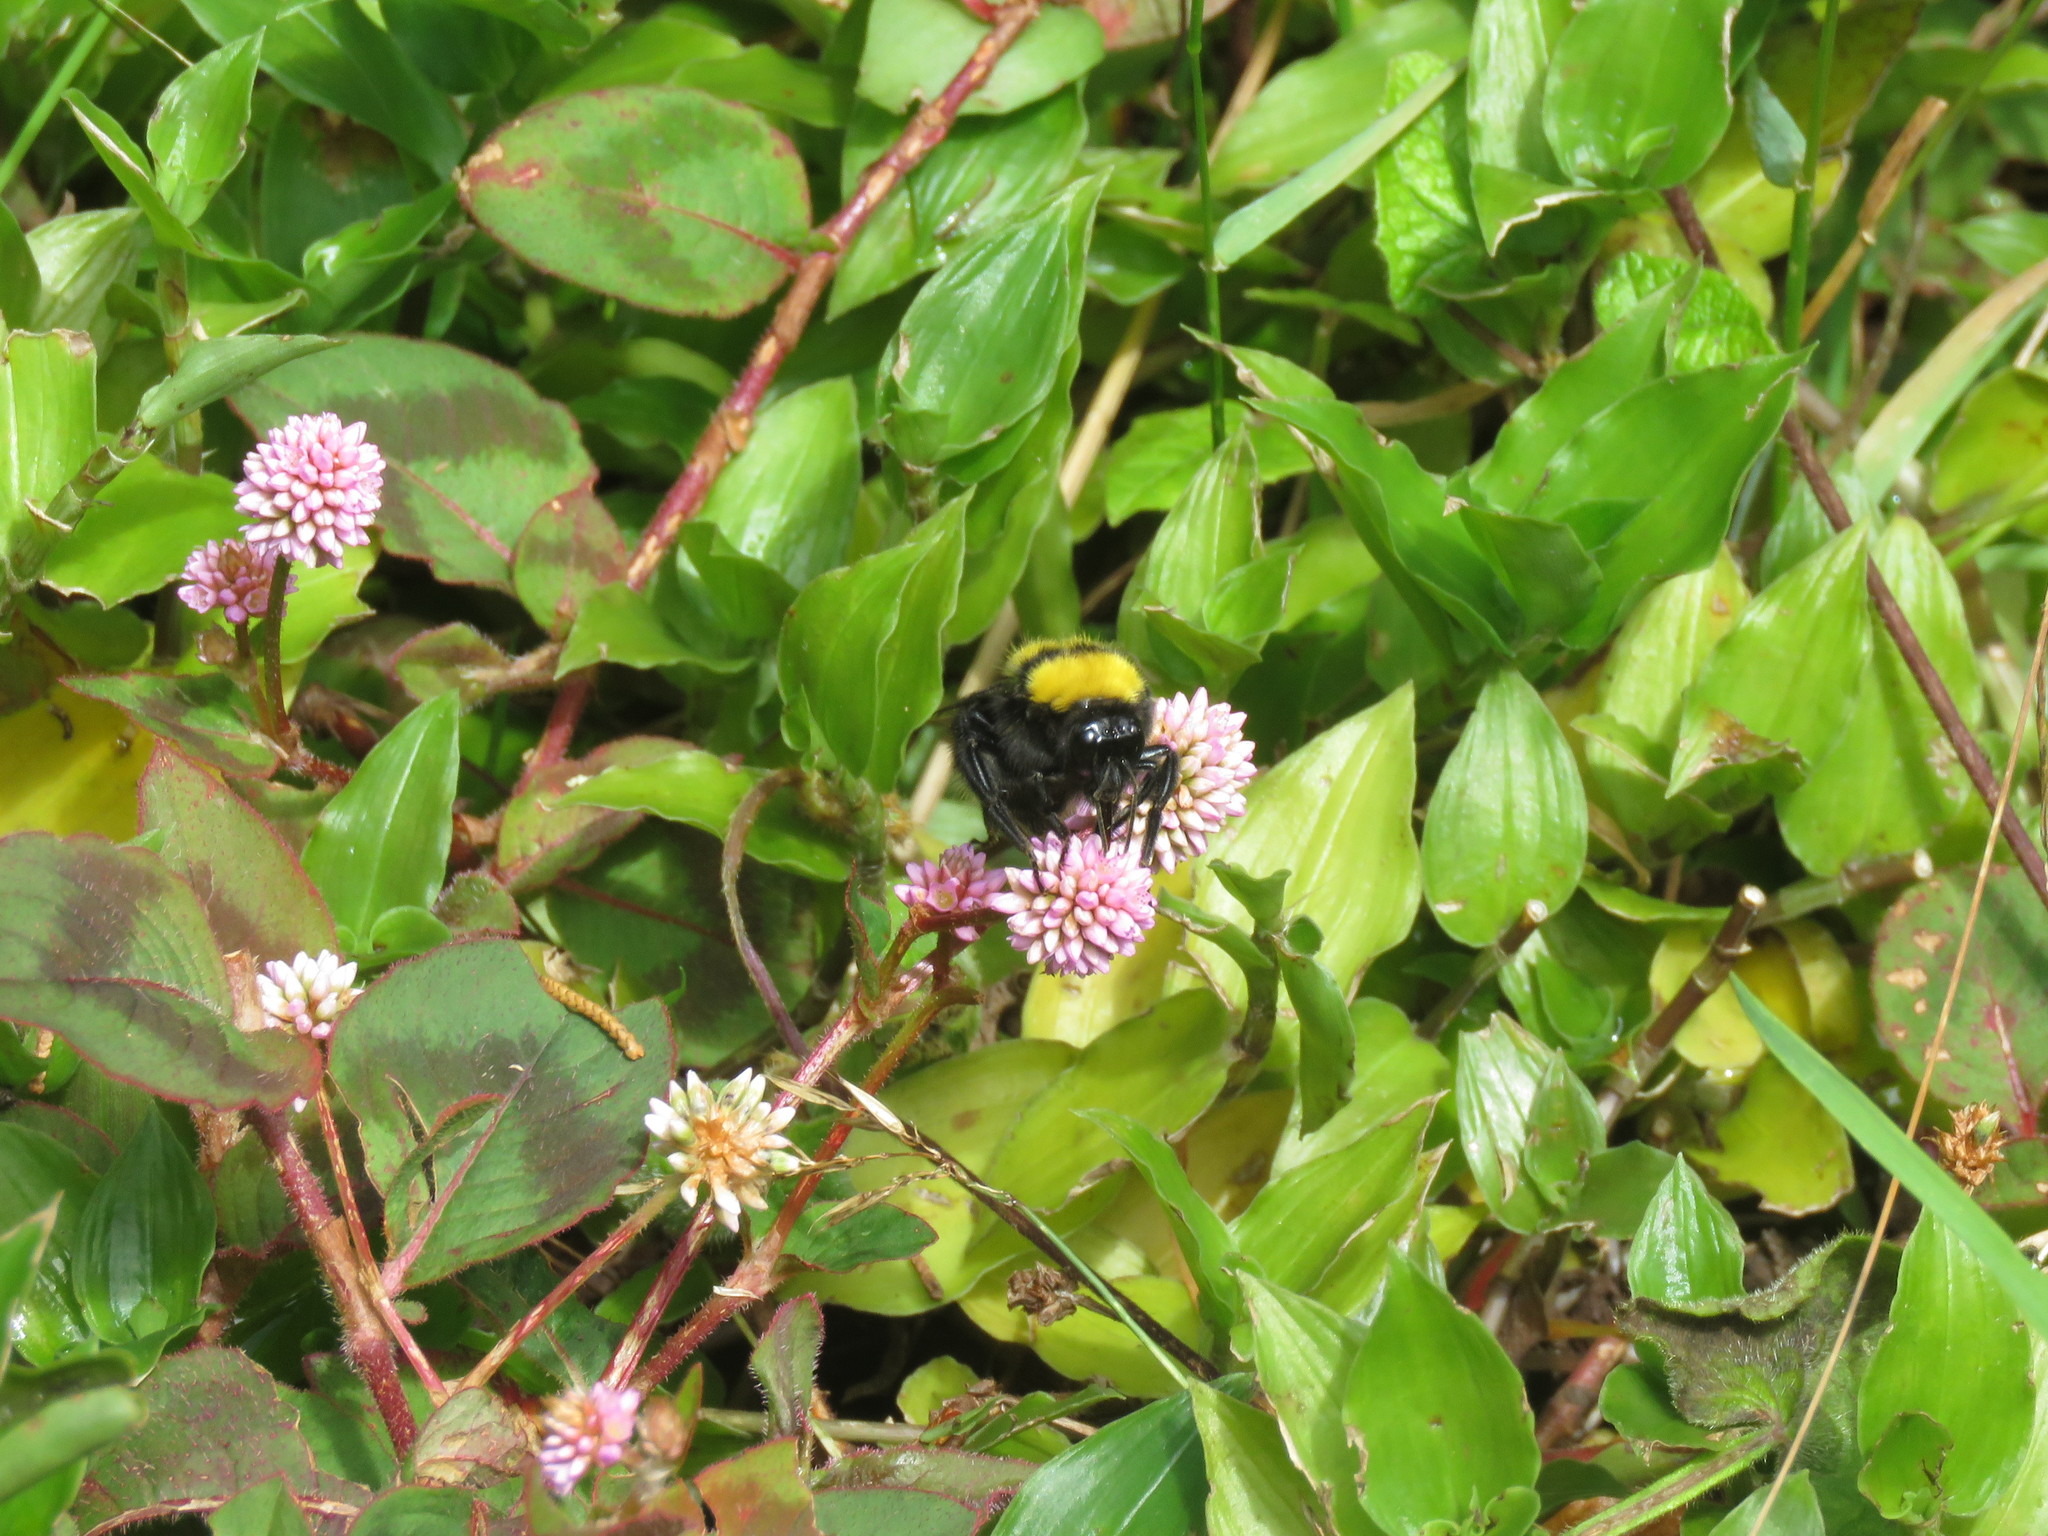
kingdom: Animalia
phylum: Arthropoda
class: Insecta
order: Hymenoptera
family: Apidae
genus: Bombus
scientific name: Bombus hortulanus
